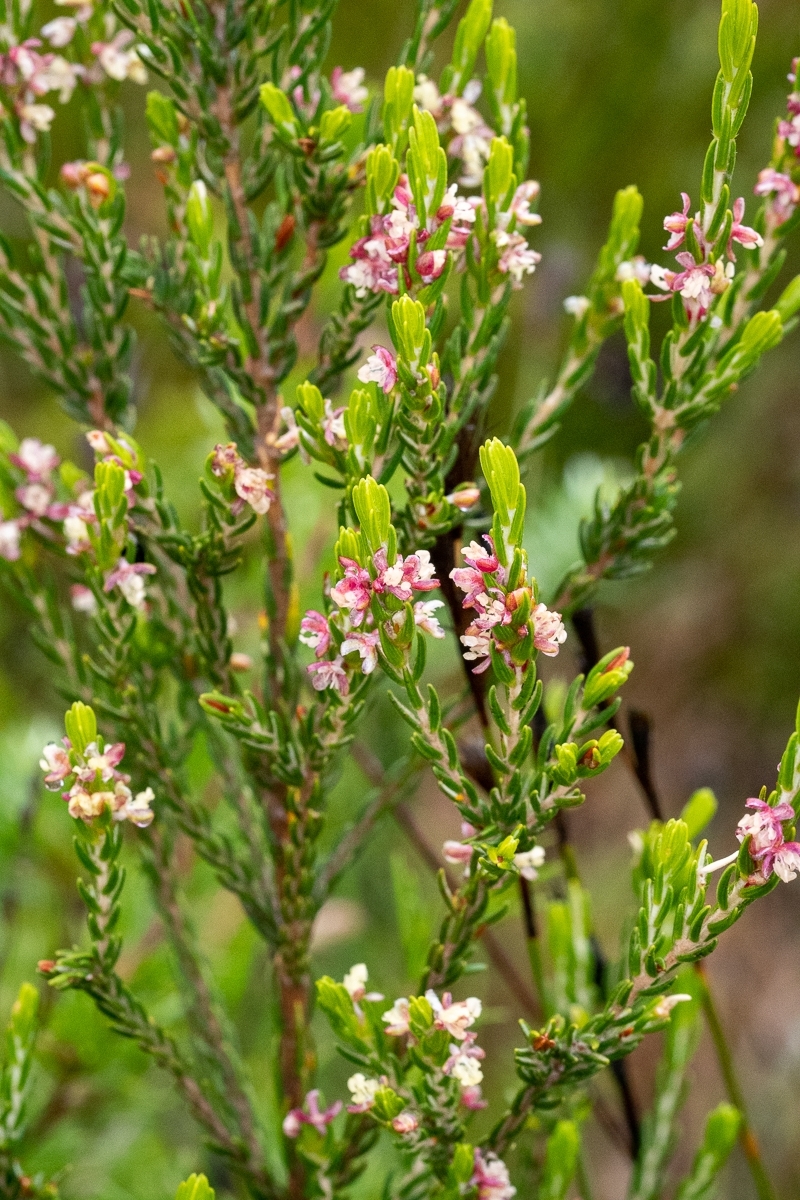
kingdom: Plantae
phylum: Tracheophyta
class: Magnoliopsida
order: Malvales
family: Thymelaeaceae
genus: Passerina
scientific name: Passerina corymbosa
